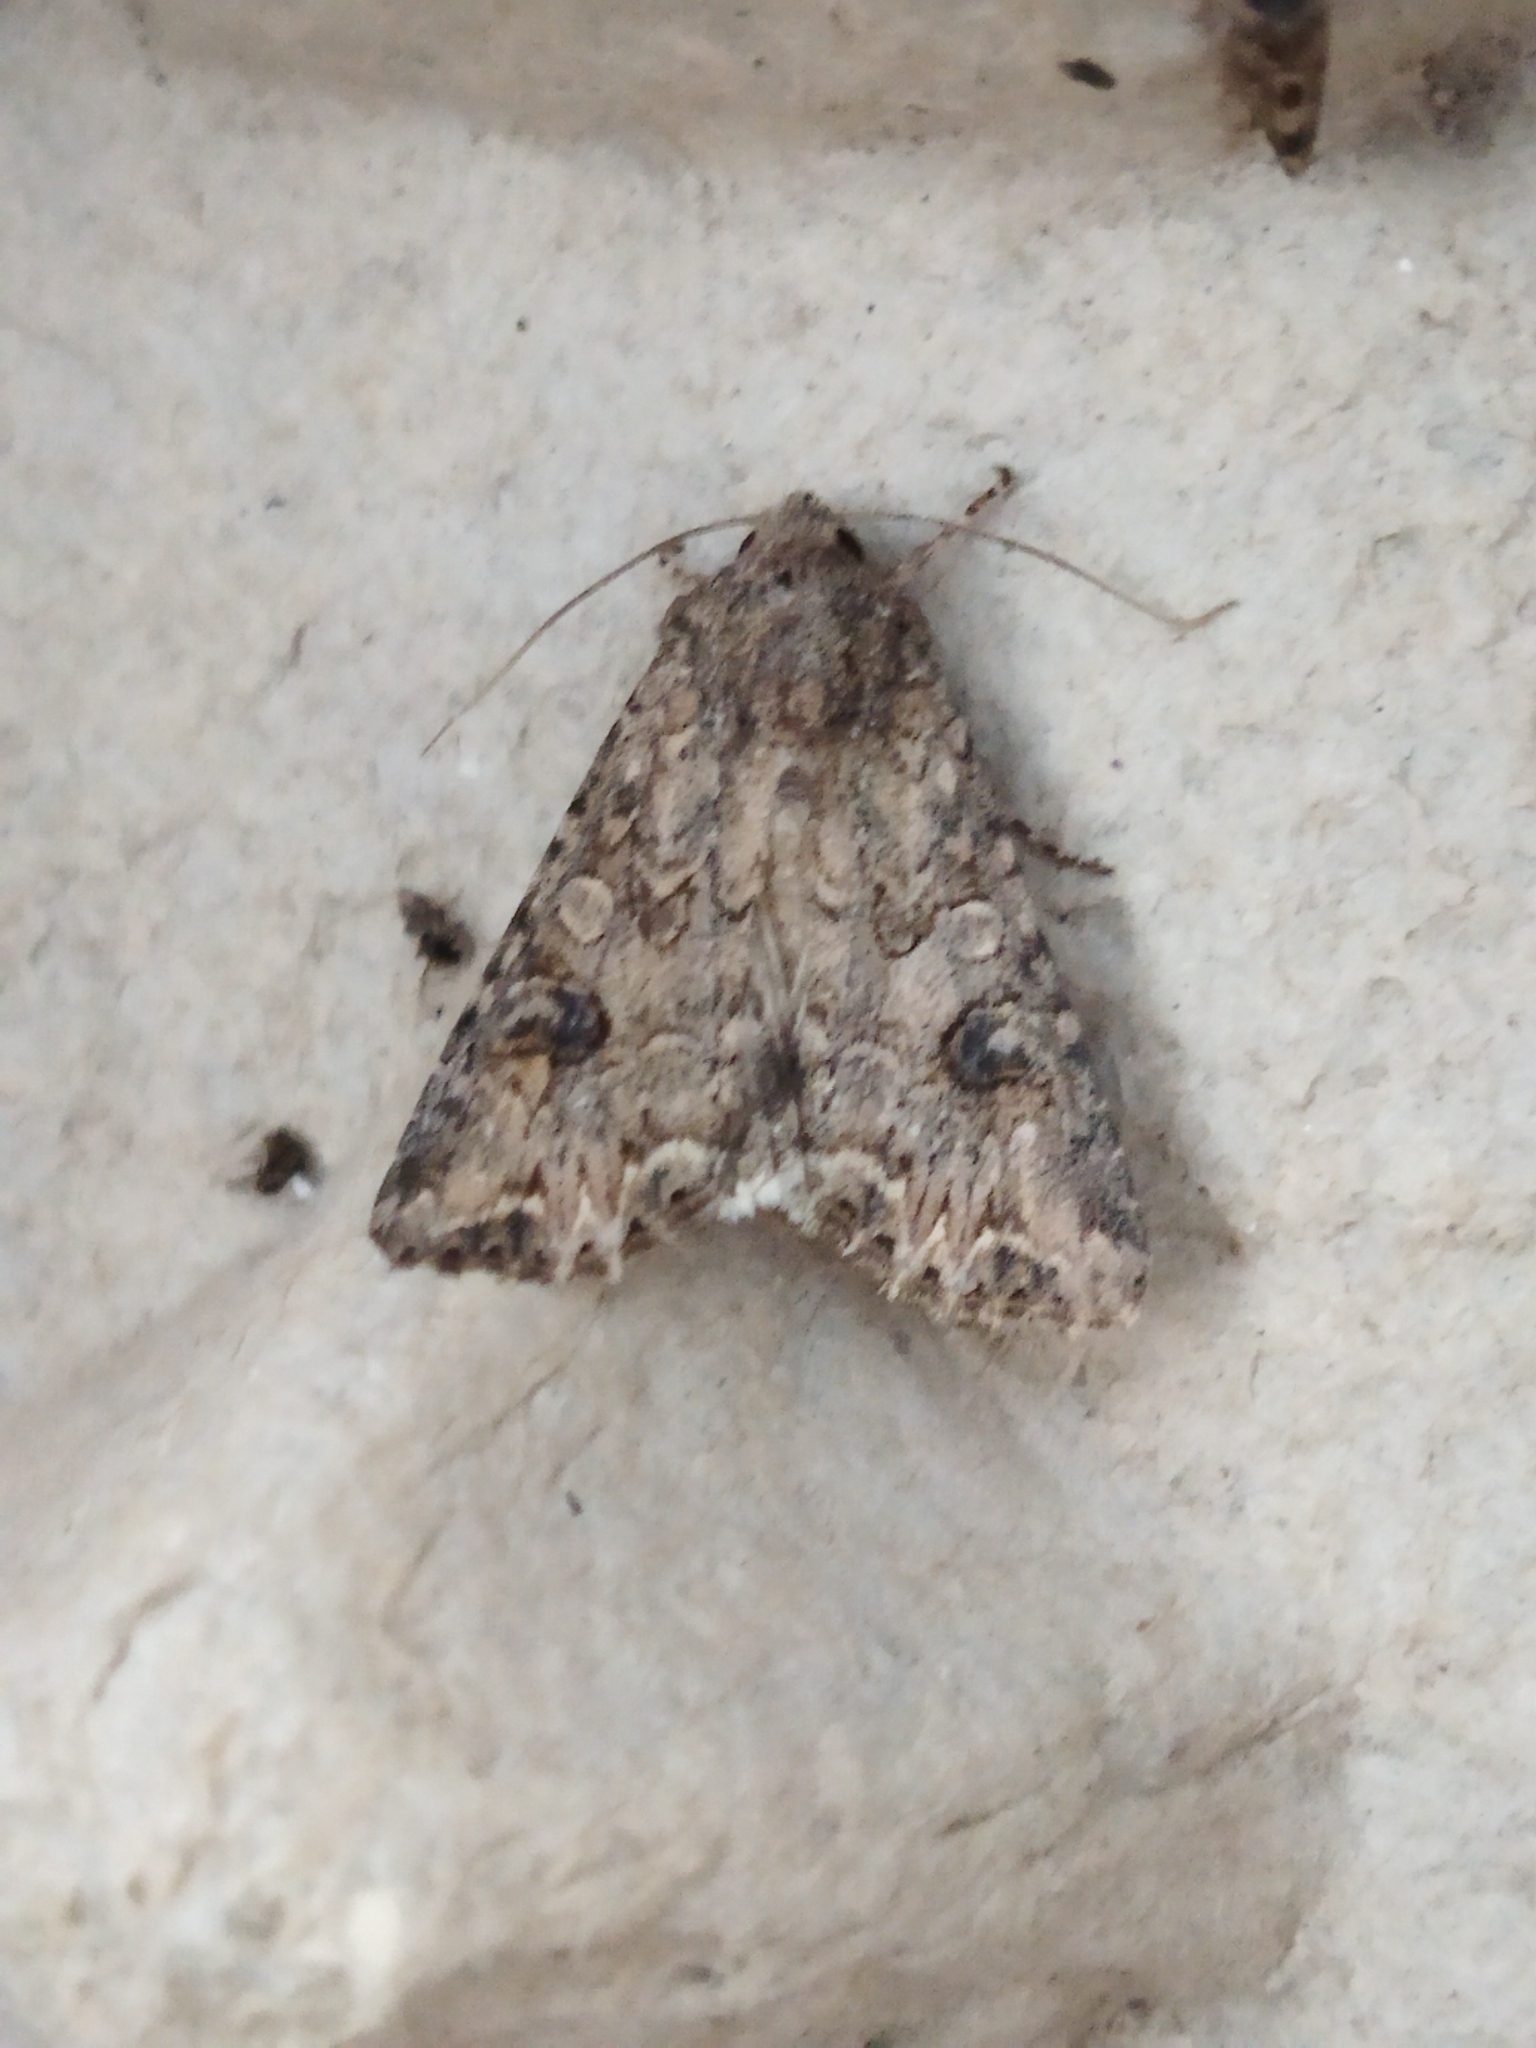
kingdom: Animalia
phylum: Arthropoda
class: Insecta
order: Lepidoptera
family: Noctuidae
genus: Anarta
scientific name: Anarta trifolii
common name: Clover cutworm moth
